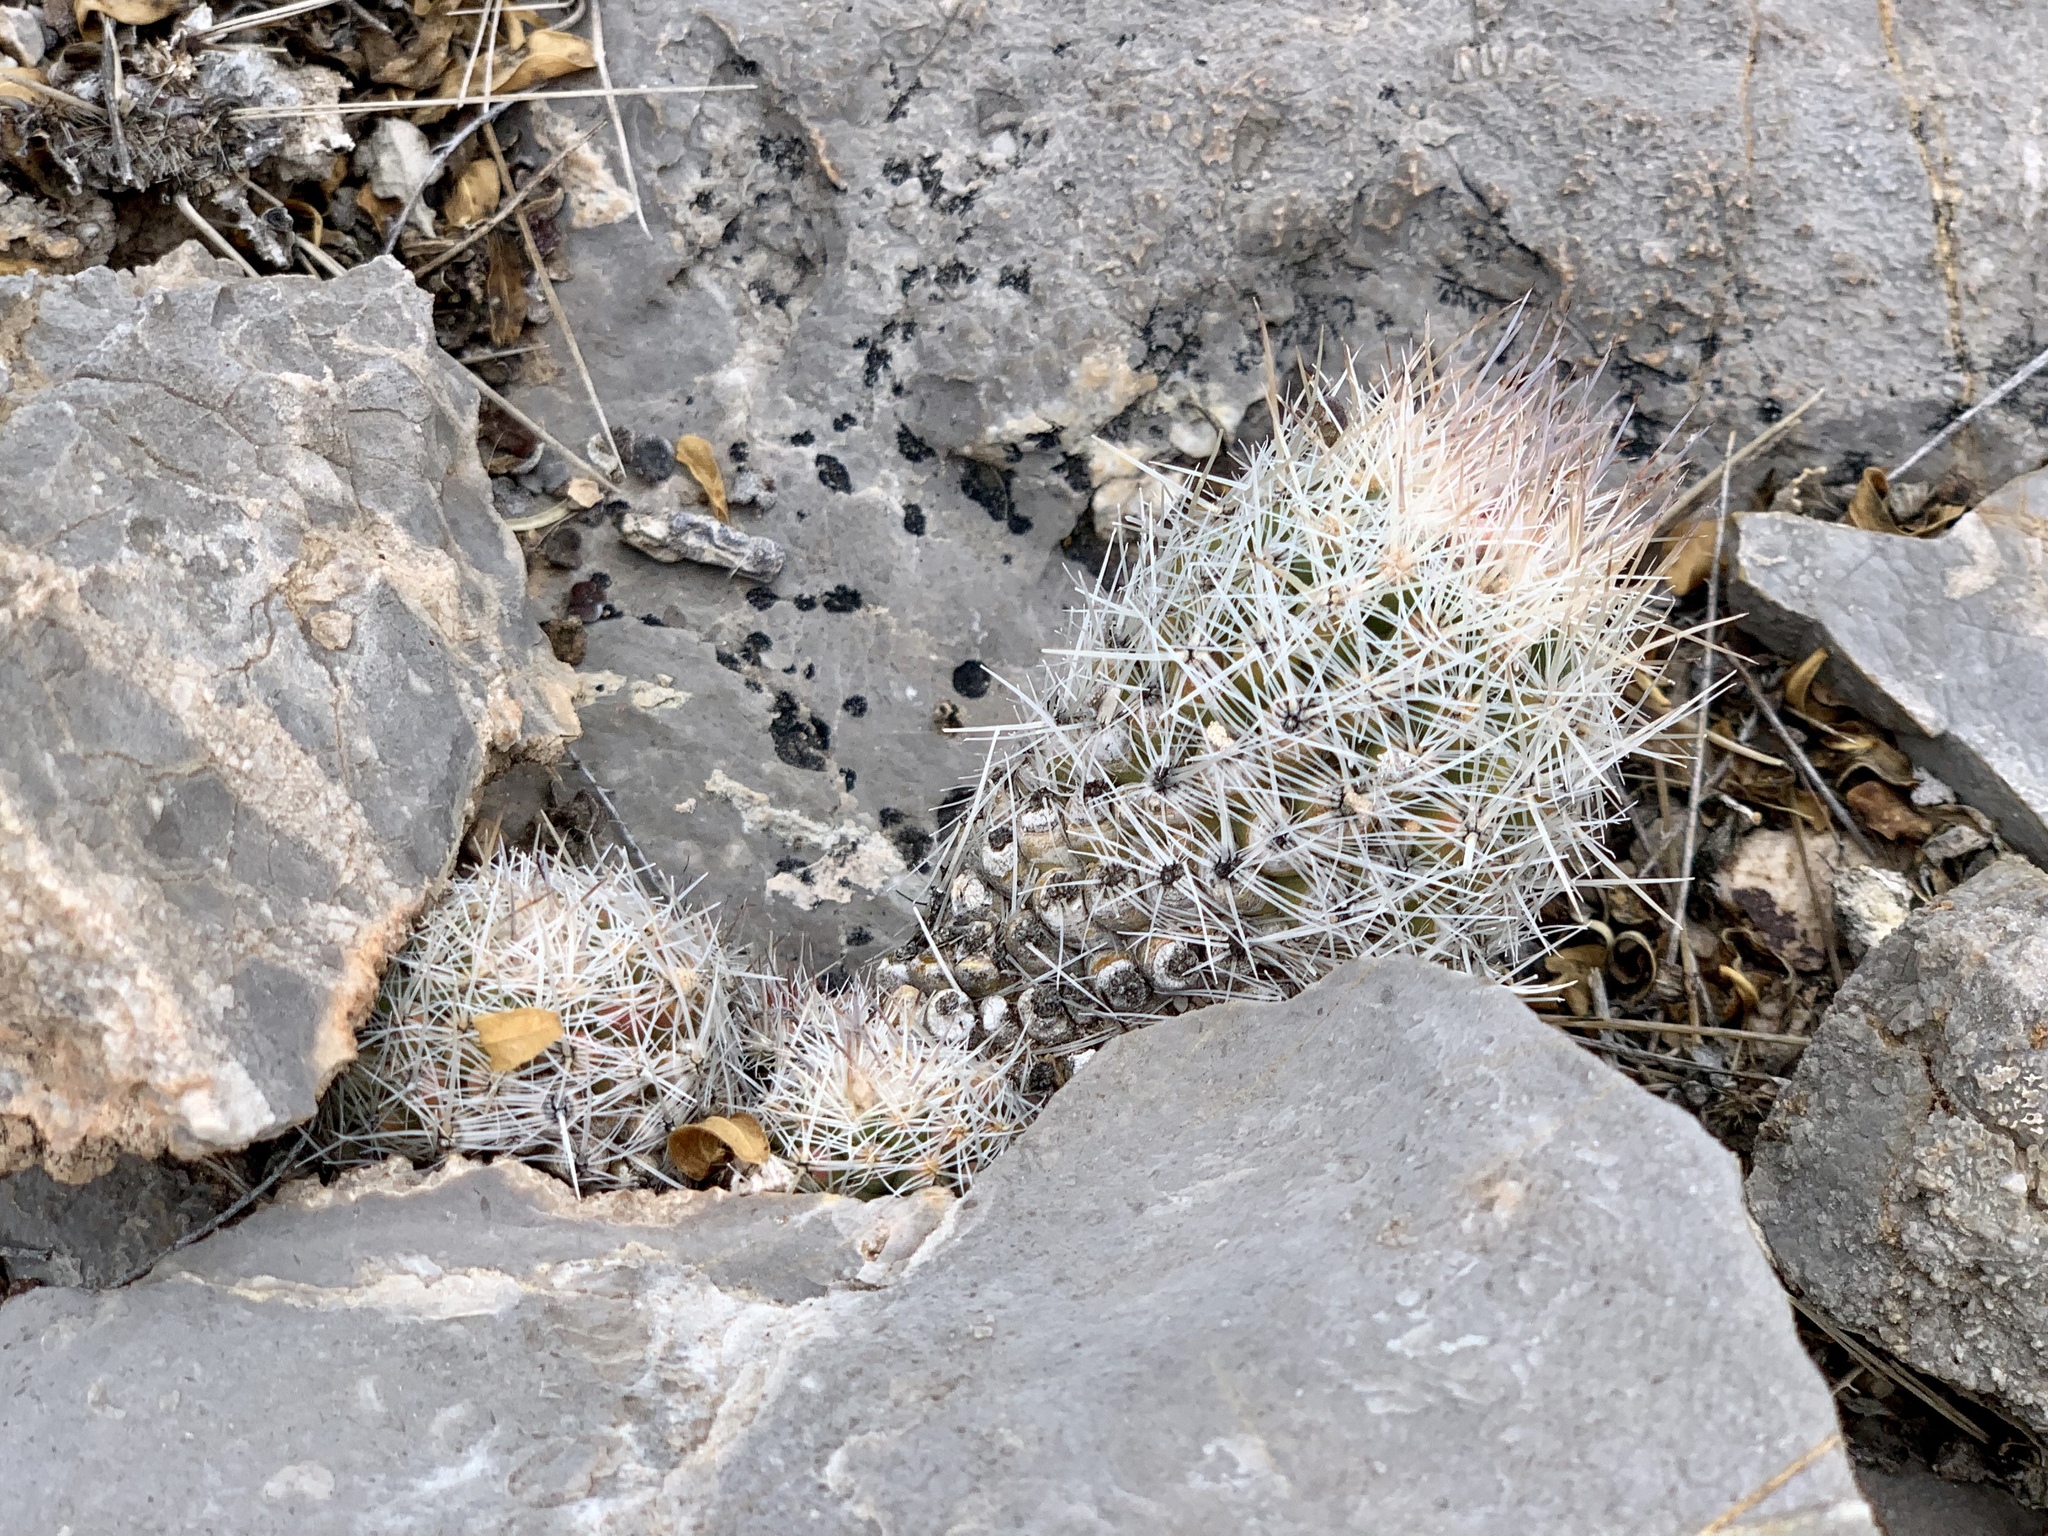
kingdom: Plantae
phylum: Tracheophyta
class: Magnoliopsida
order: Caryophyllales
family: Cactaceae
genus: Pelecyphora
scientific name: Pelecyphora tuberculosa
